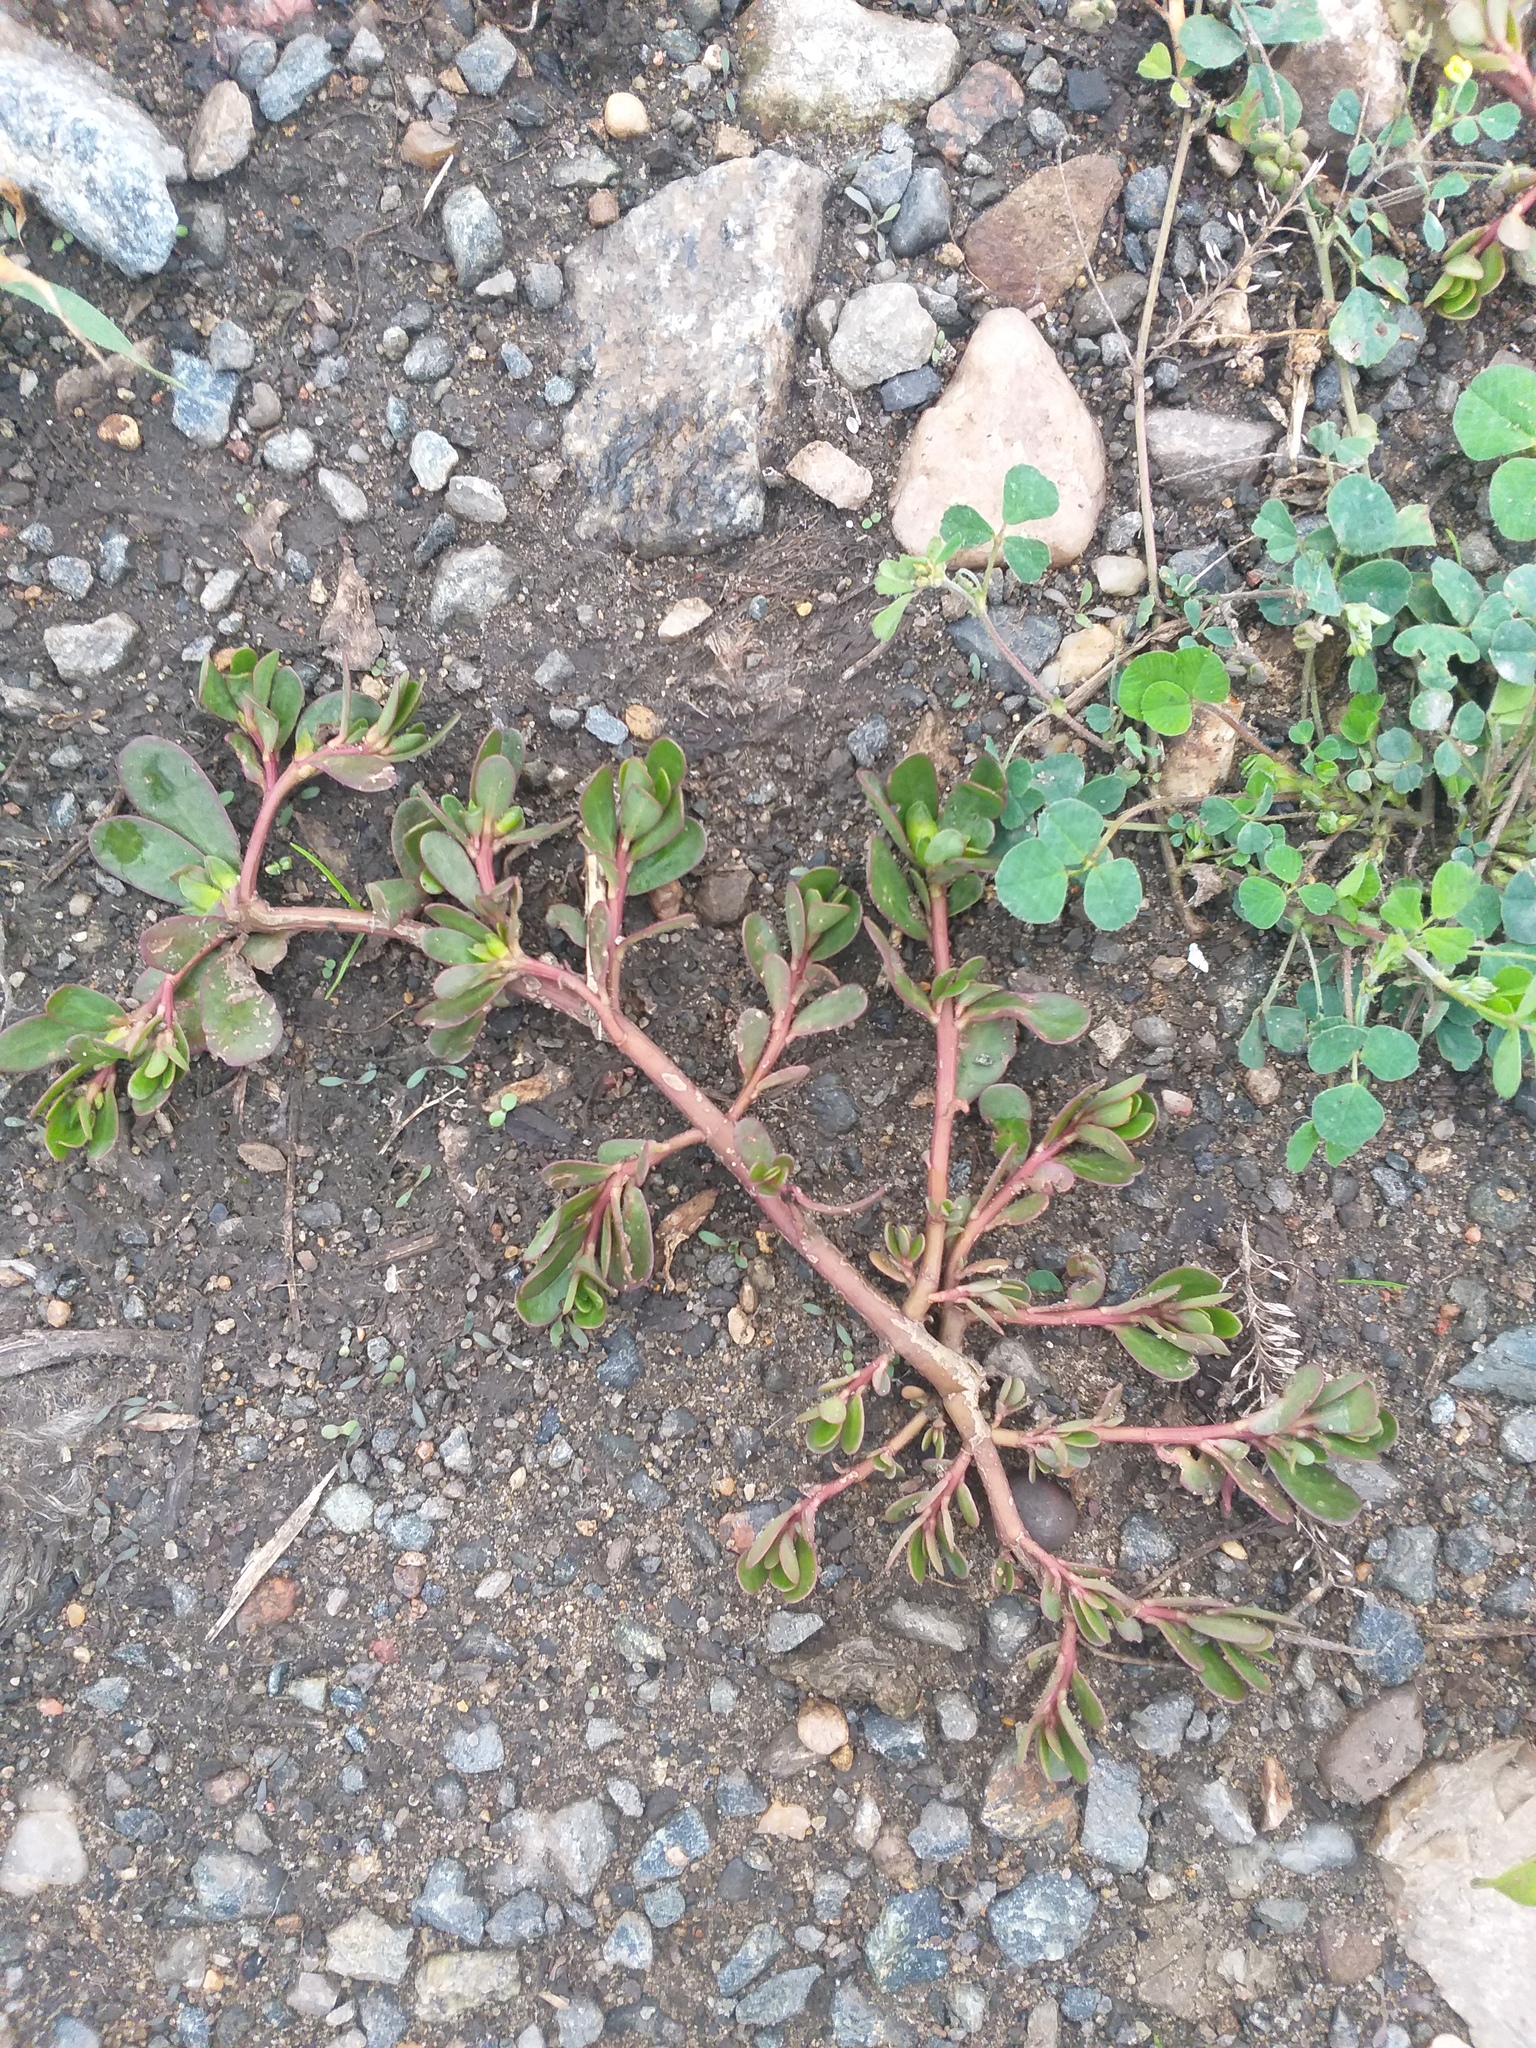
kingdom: Plantae
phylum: Tracheophyta
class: Magnoliopsida
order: Caryophyllales
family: Portulacaceae
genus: Portulaca
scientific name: Portulaca oleracea
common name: Common purslane
